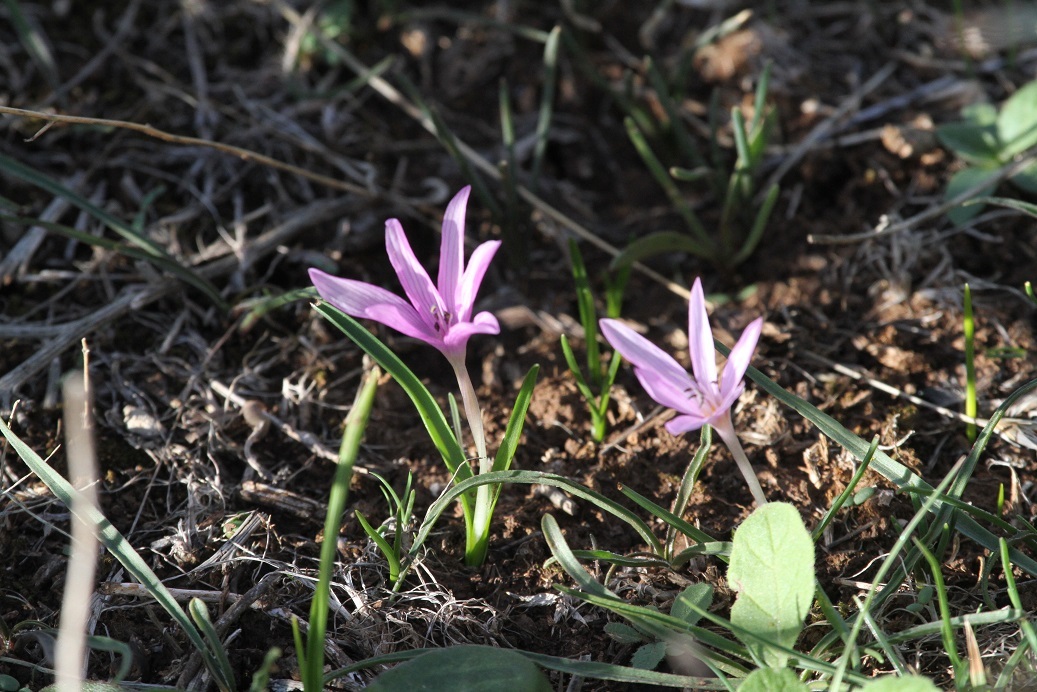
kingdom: Plantae
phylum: Tracheophyta
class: Liliopsida
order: Liliales
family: Colchicaceae
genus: Colchicum
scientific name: Colchicum cupanii
